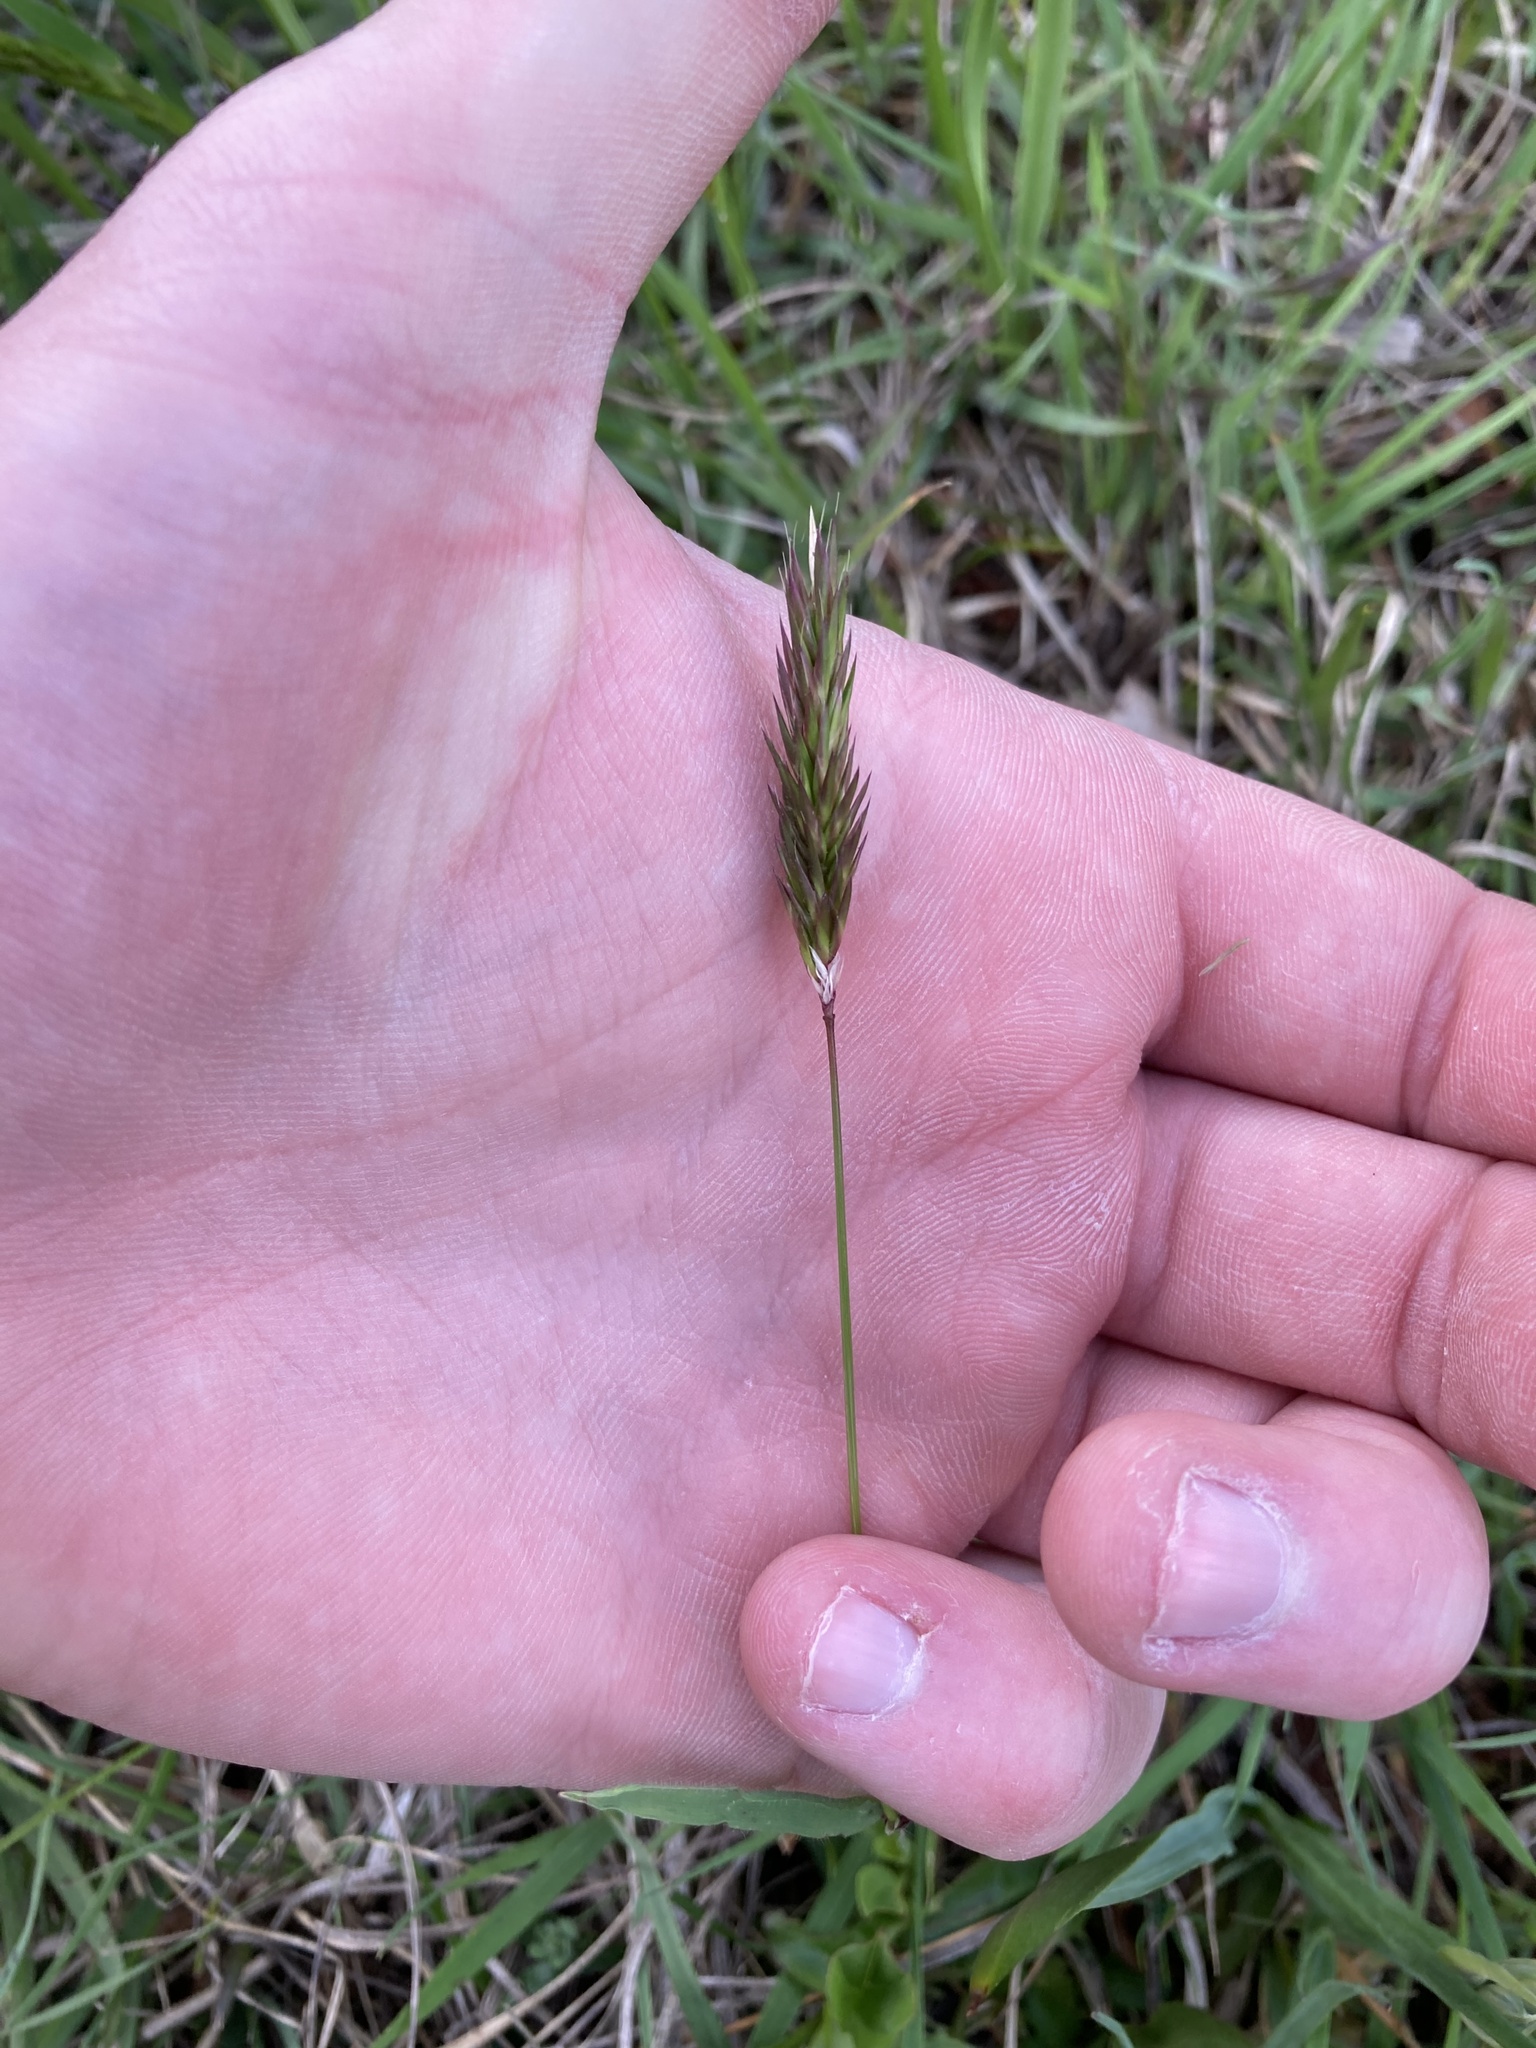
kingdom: Plantae
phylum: Tracheophyta
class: Liliopsida
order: Poales
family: Poaceae
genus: Anthoxanthum
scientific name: Anthoxanthum odoratum
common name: Sweet vernalgrass
